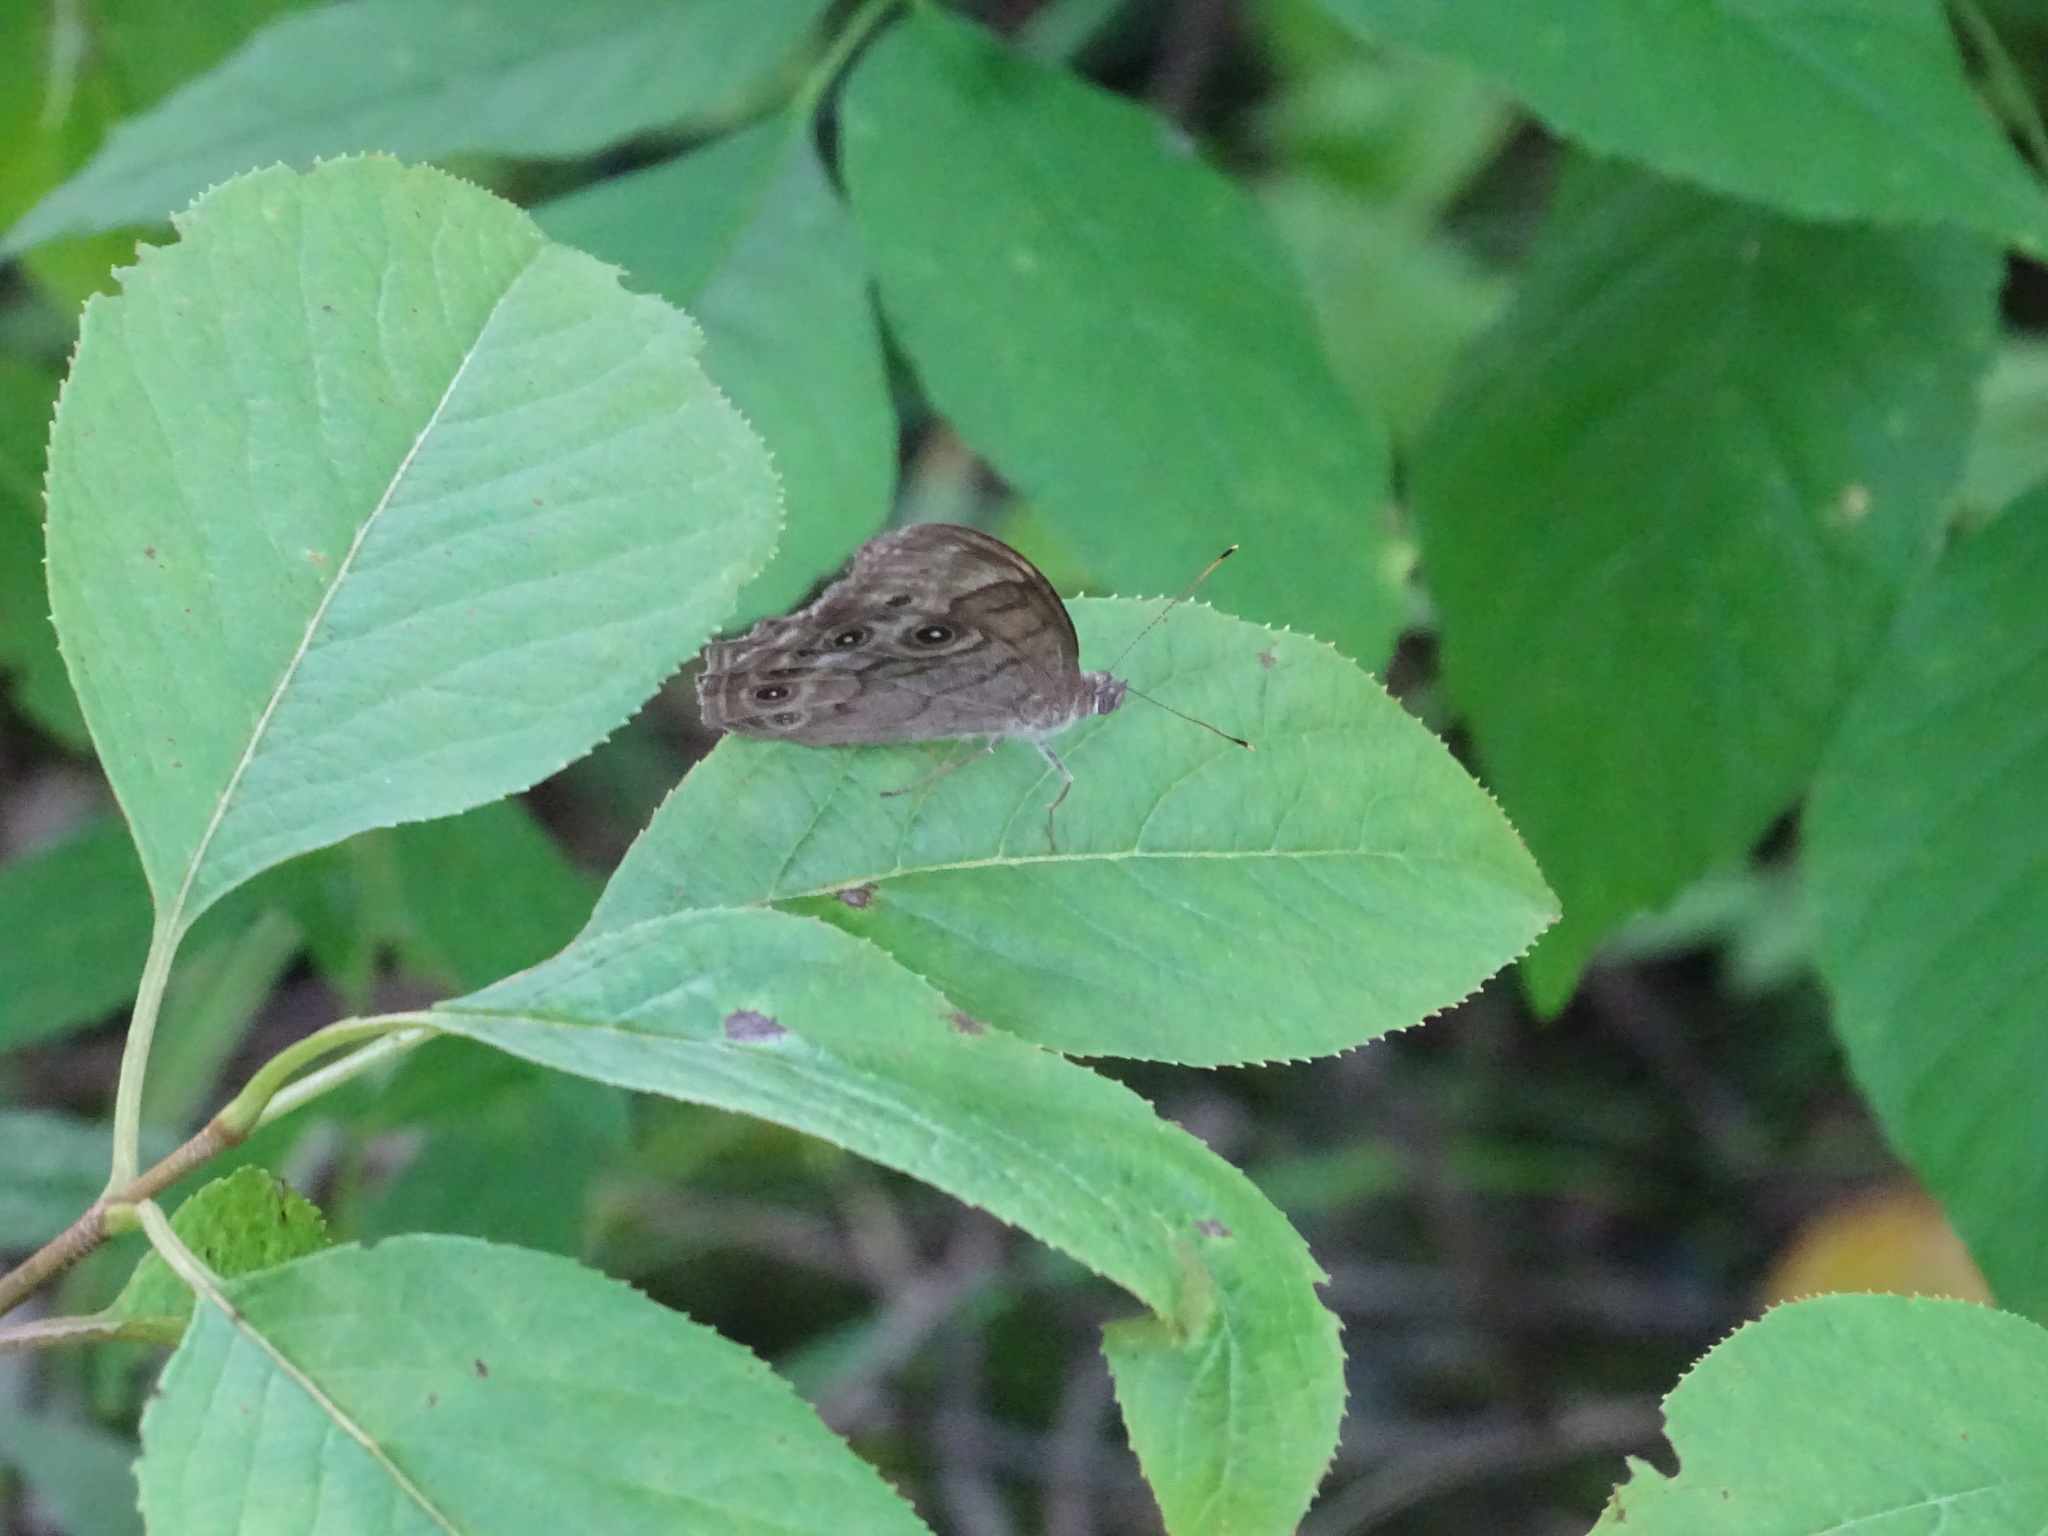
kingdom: Animalia
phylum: Arthropoda
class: Insecta
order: Lepidoptera
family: Nymphalidae
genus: Lethe
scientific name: Lethe anthedon
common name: Northern pearly-eye
